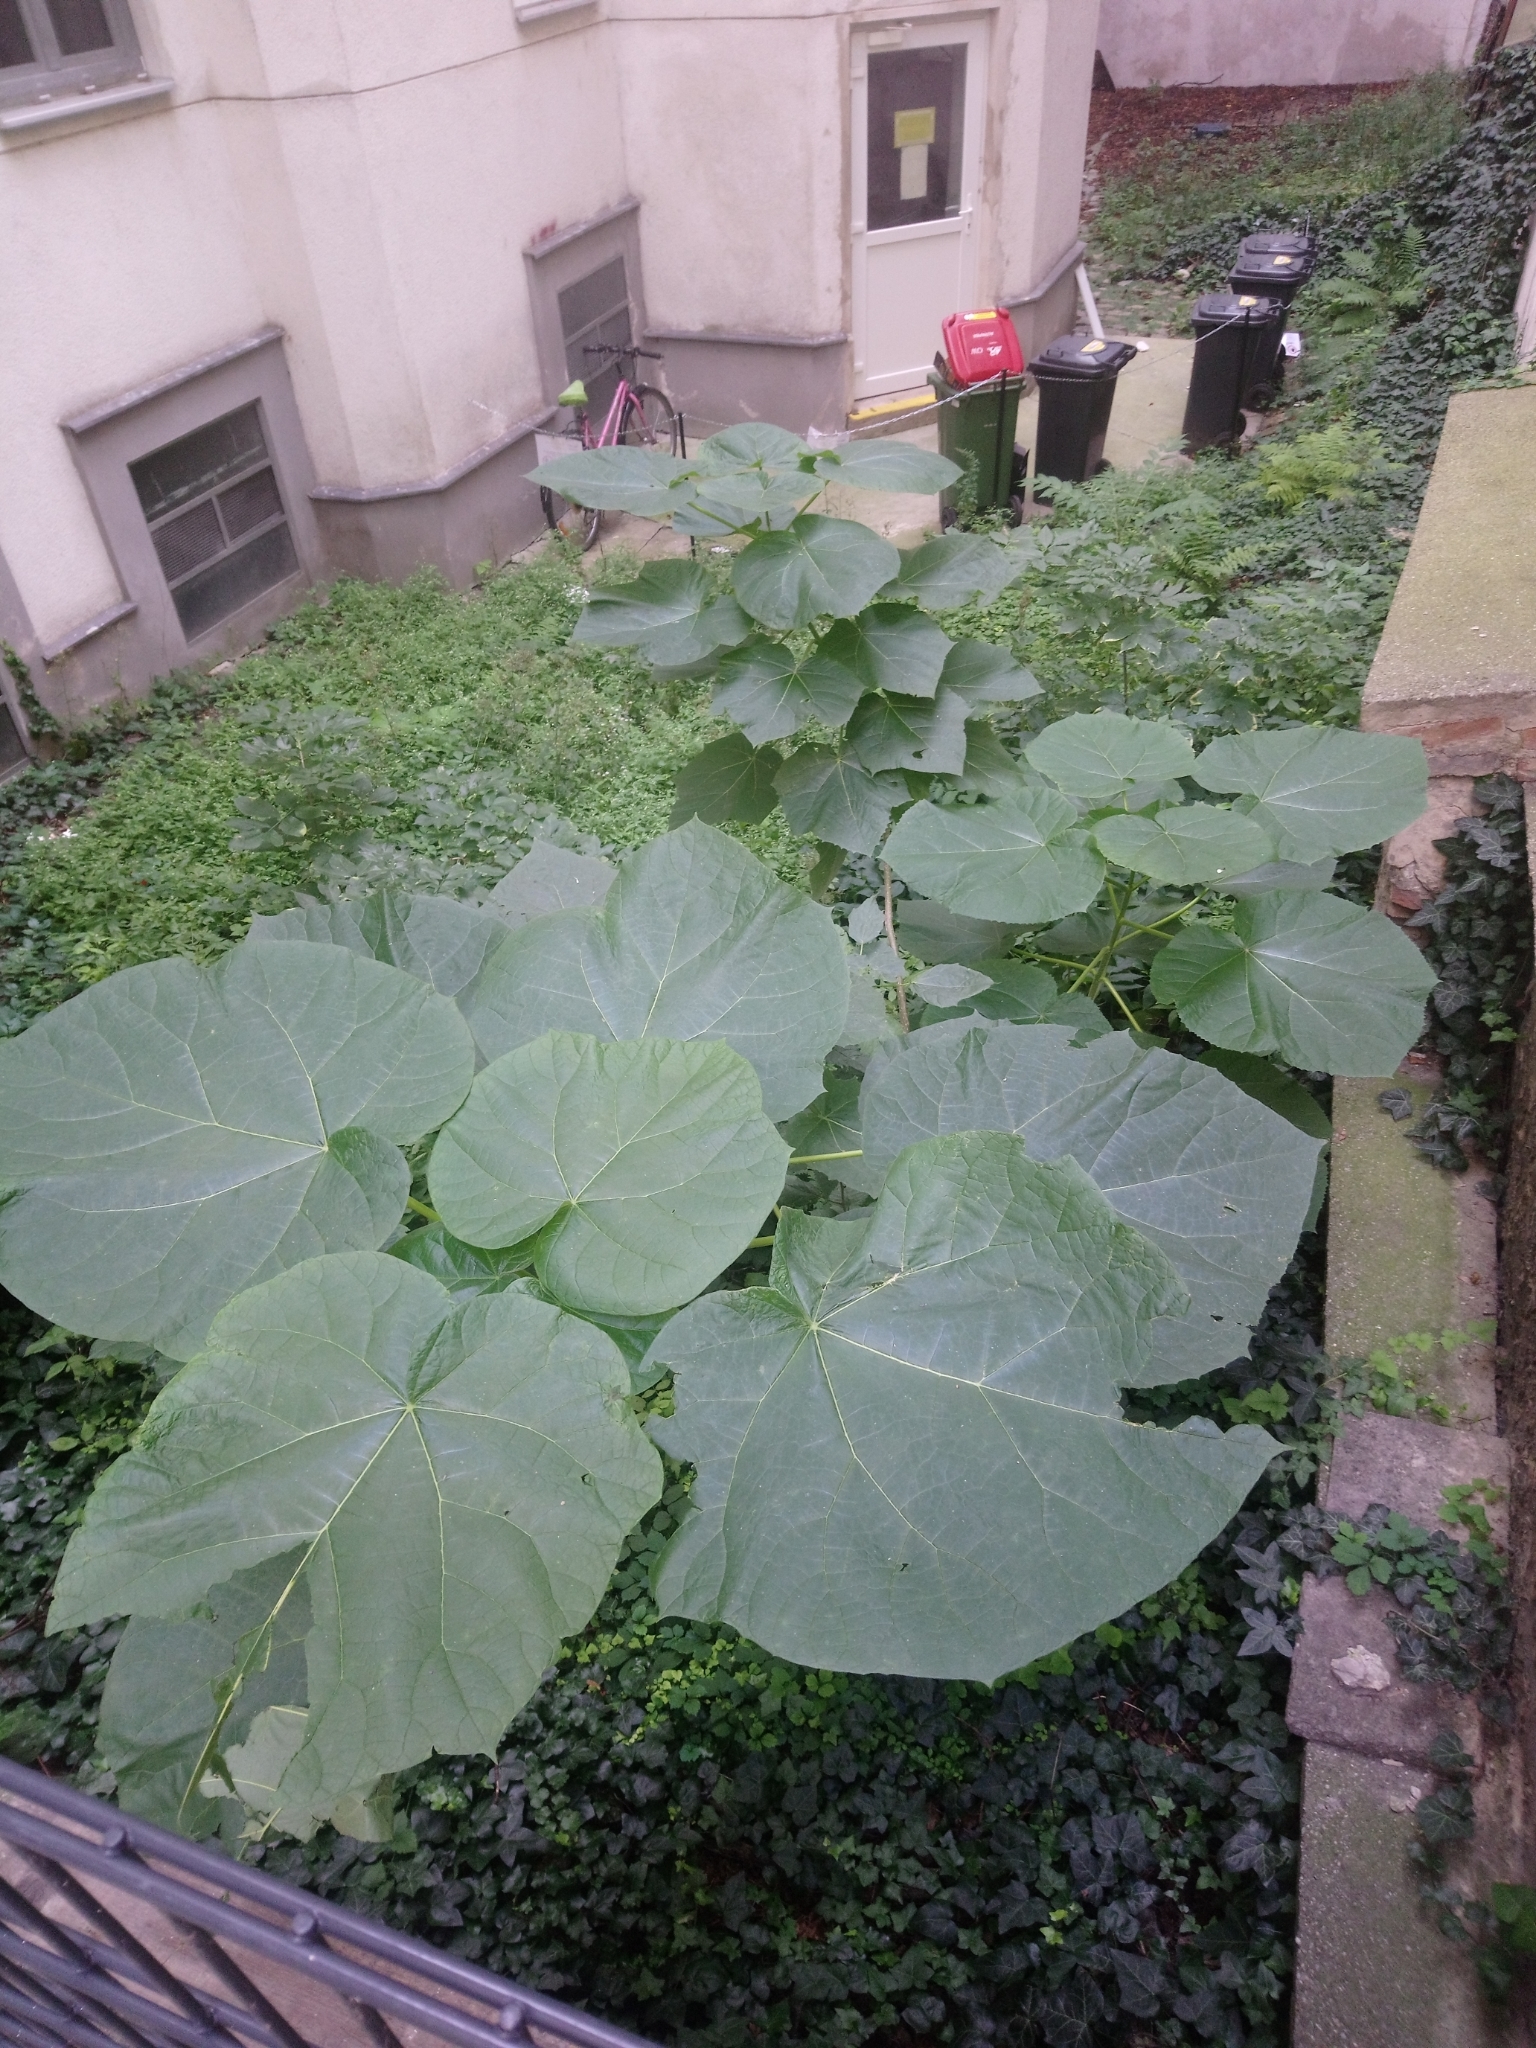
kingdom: Plantae
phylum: Tracheophyta
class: Magnoliopsida
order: Lamiales
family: Paulowniaceae
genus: Paulownia
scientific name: Paulownia tomentosa
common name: Foxglove-tree
